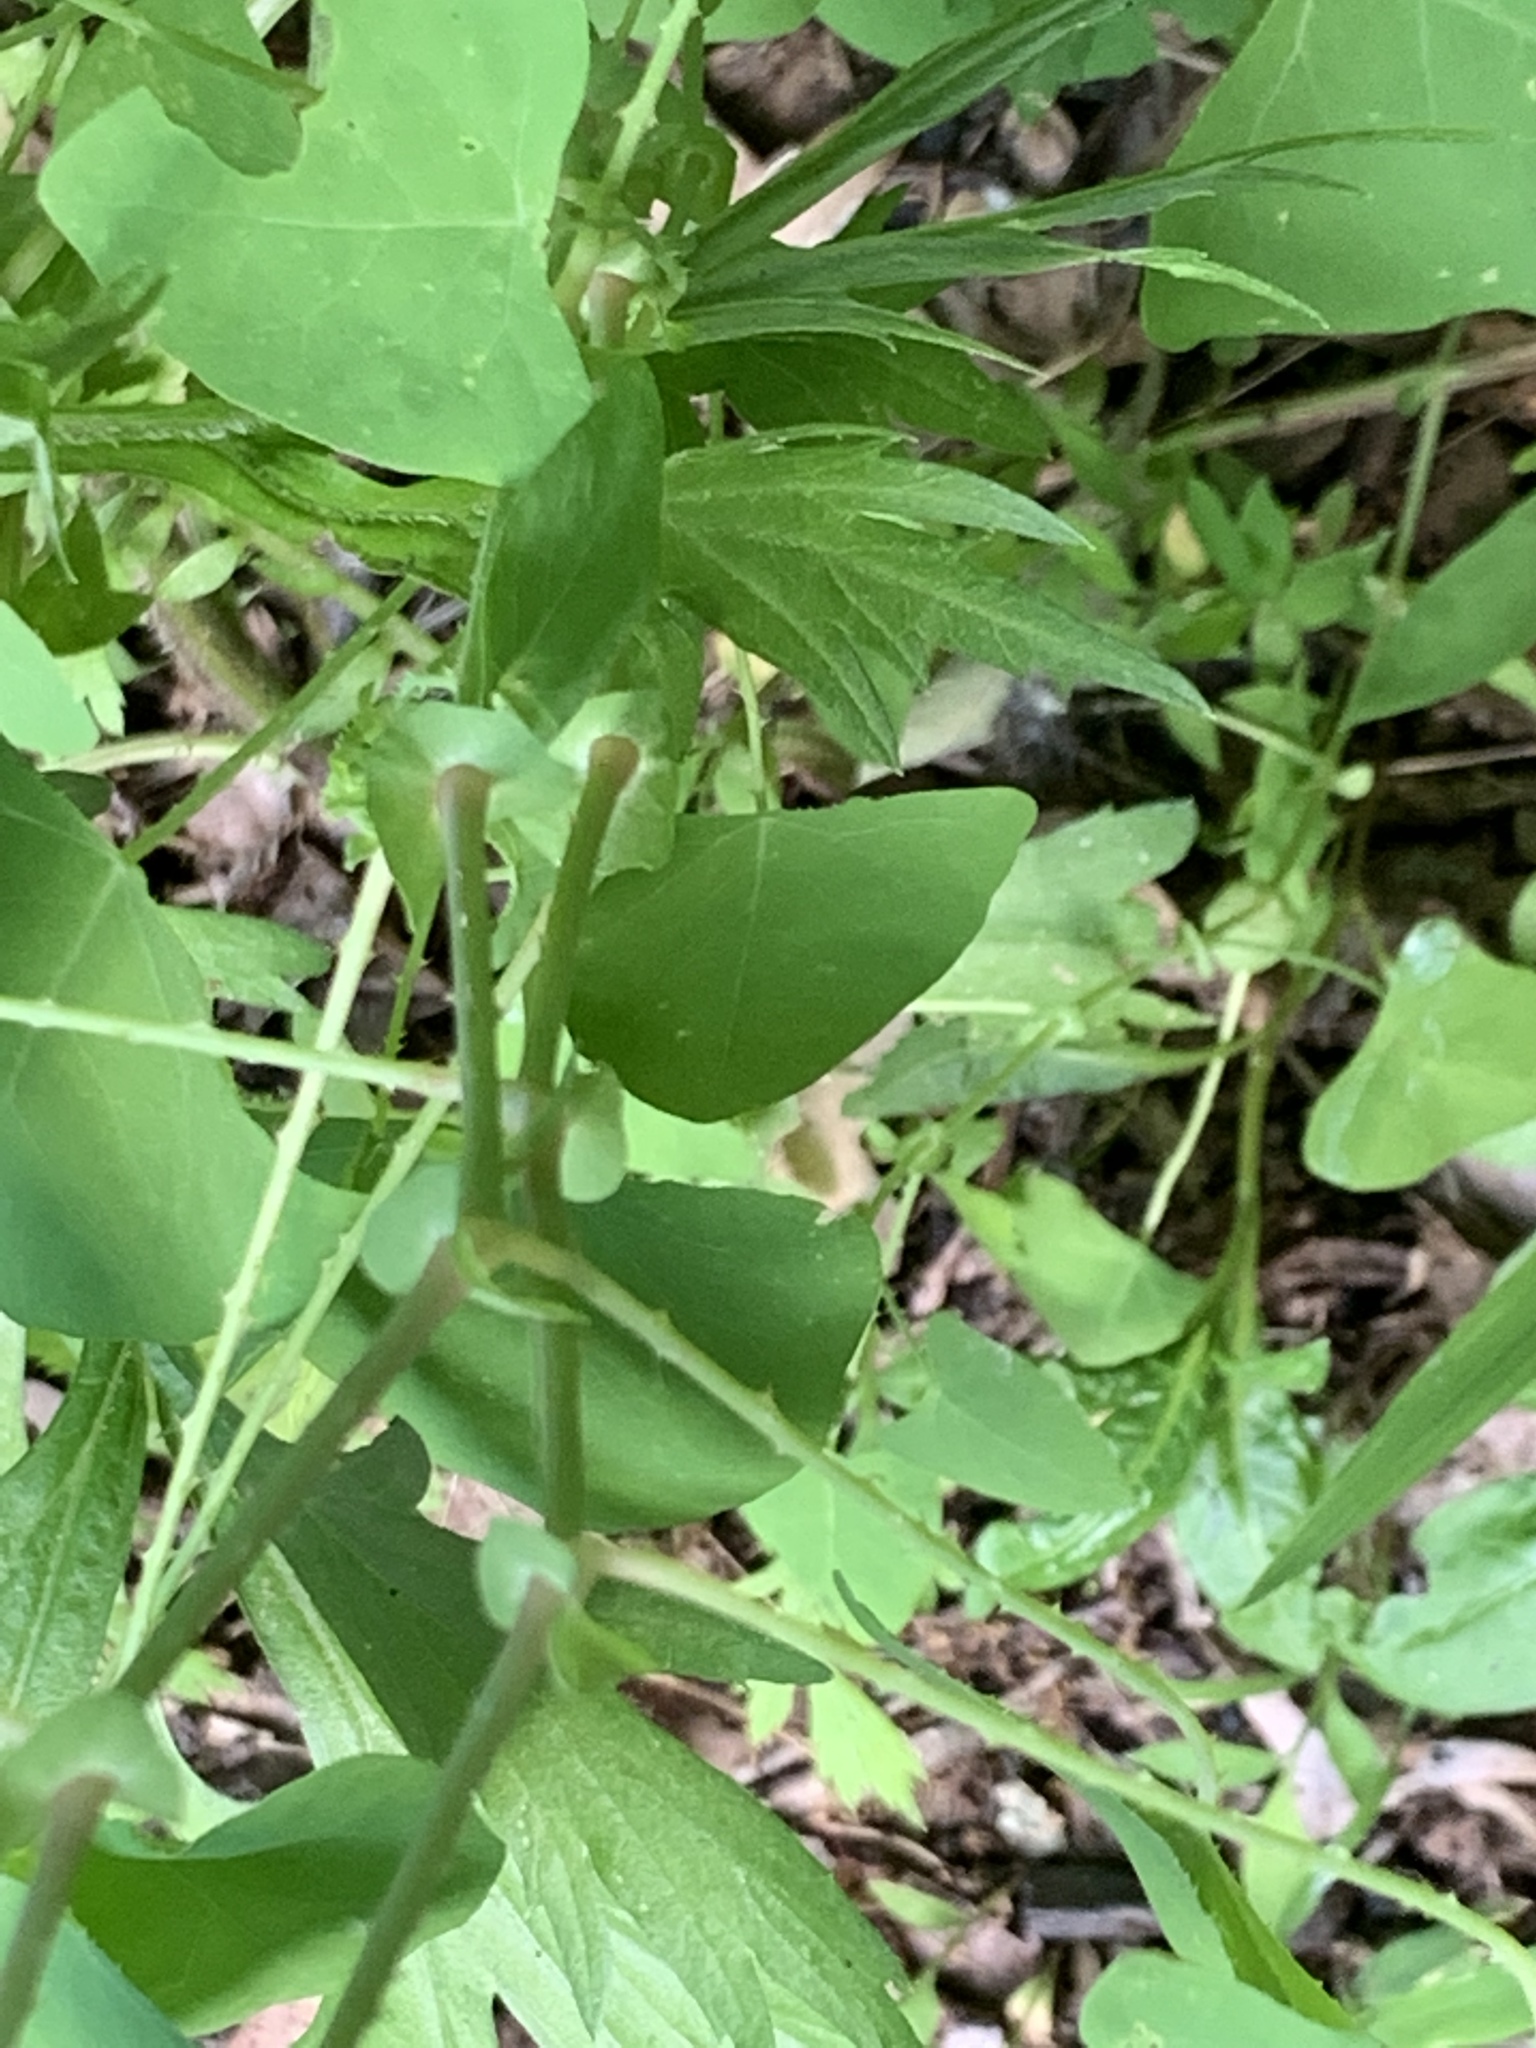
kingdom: Plantae
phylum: Tracheophyta
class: Magnoliopsida
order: Caryophyllales
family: Polygonaceae
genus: Persicaria
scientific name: Persicaria perfoliata
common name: Asiatic tearthumb
